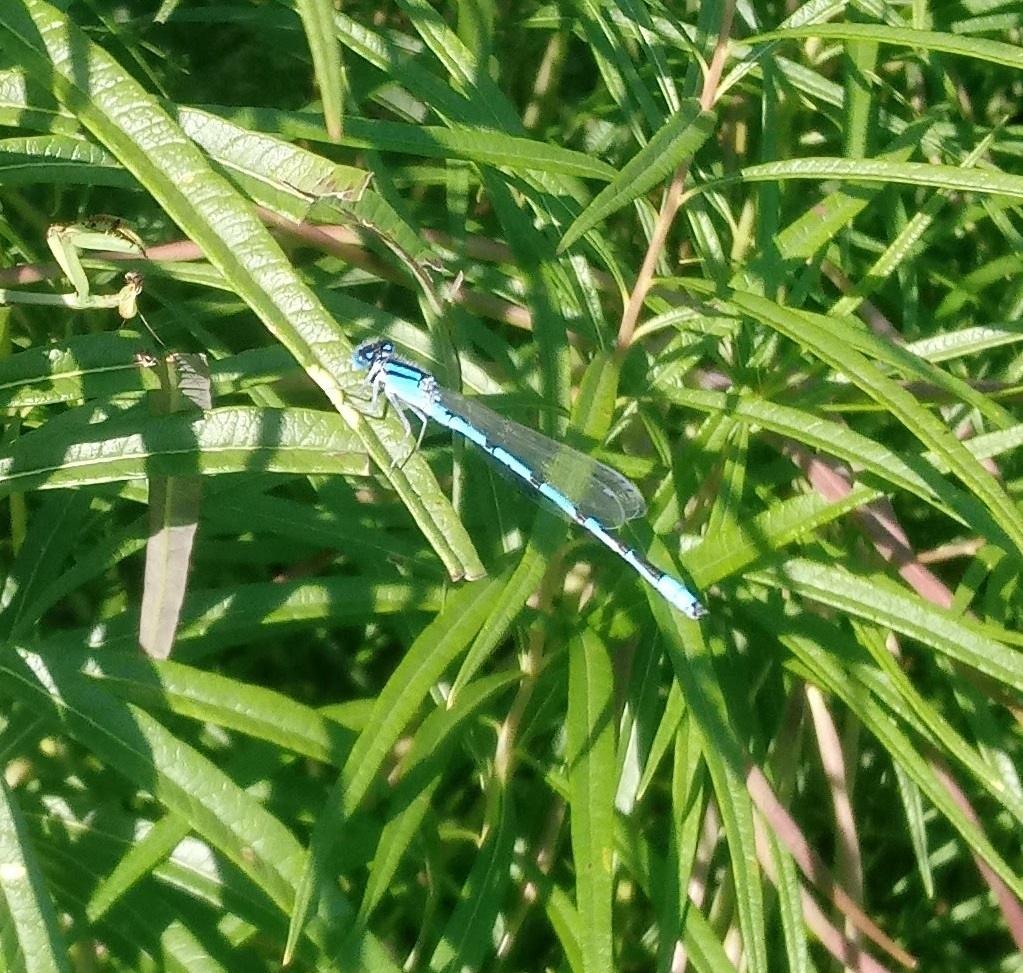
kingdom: Animalia
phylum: Arthropoda
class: Insecta
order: Odonata
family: Coenagrionidae
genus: Enallagma
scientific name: Enallagma civile
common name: Damselfly
